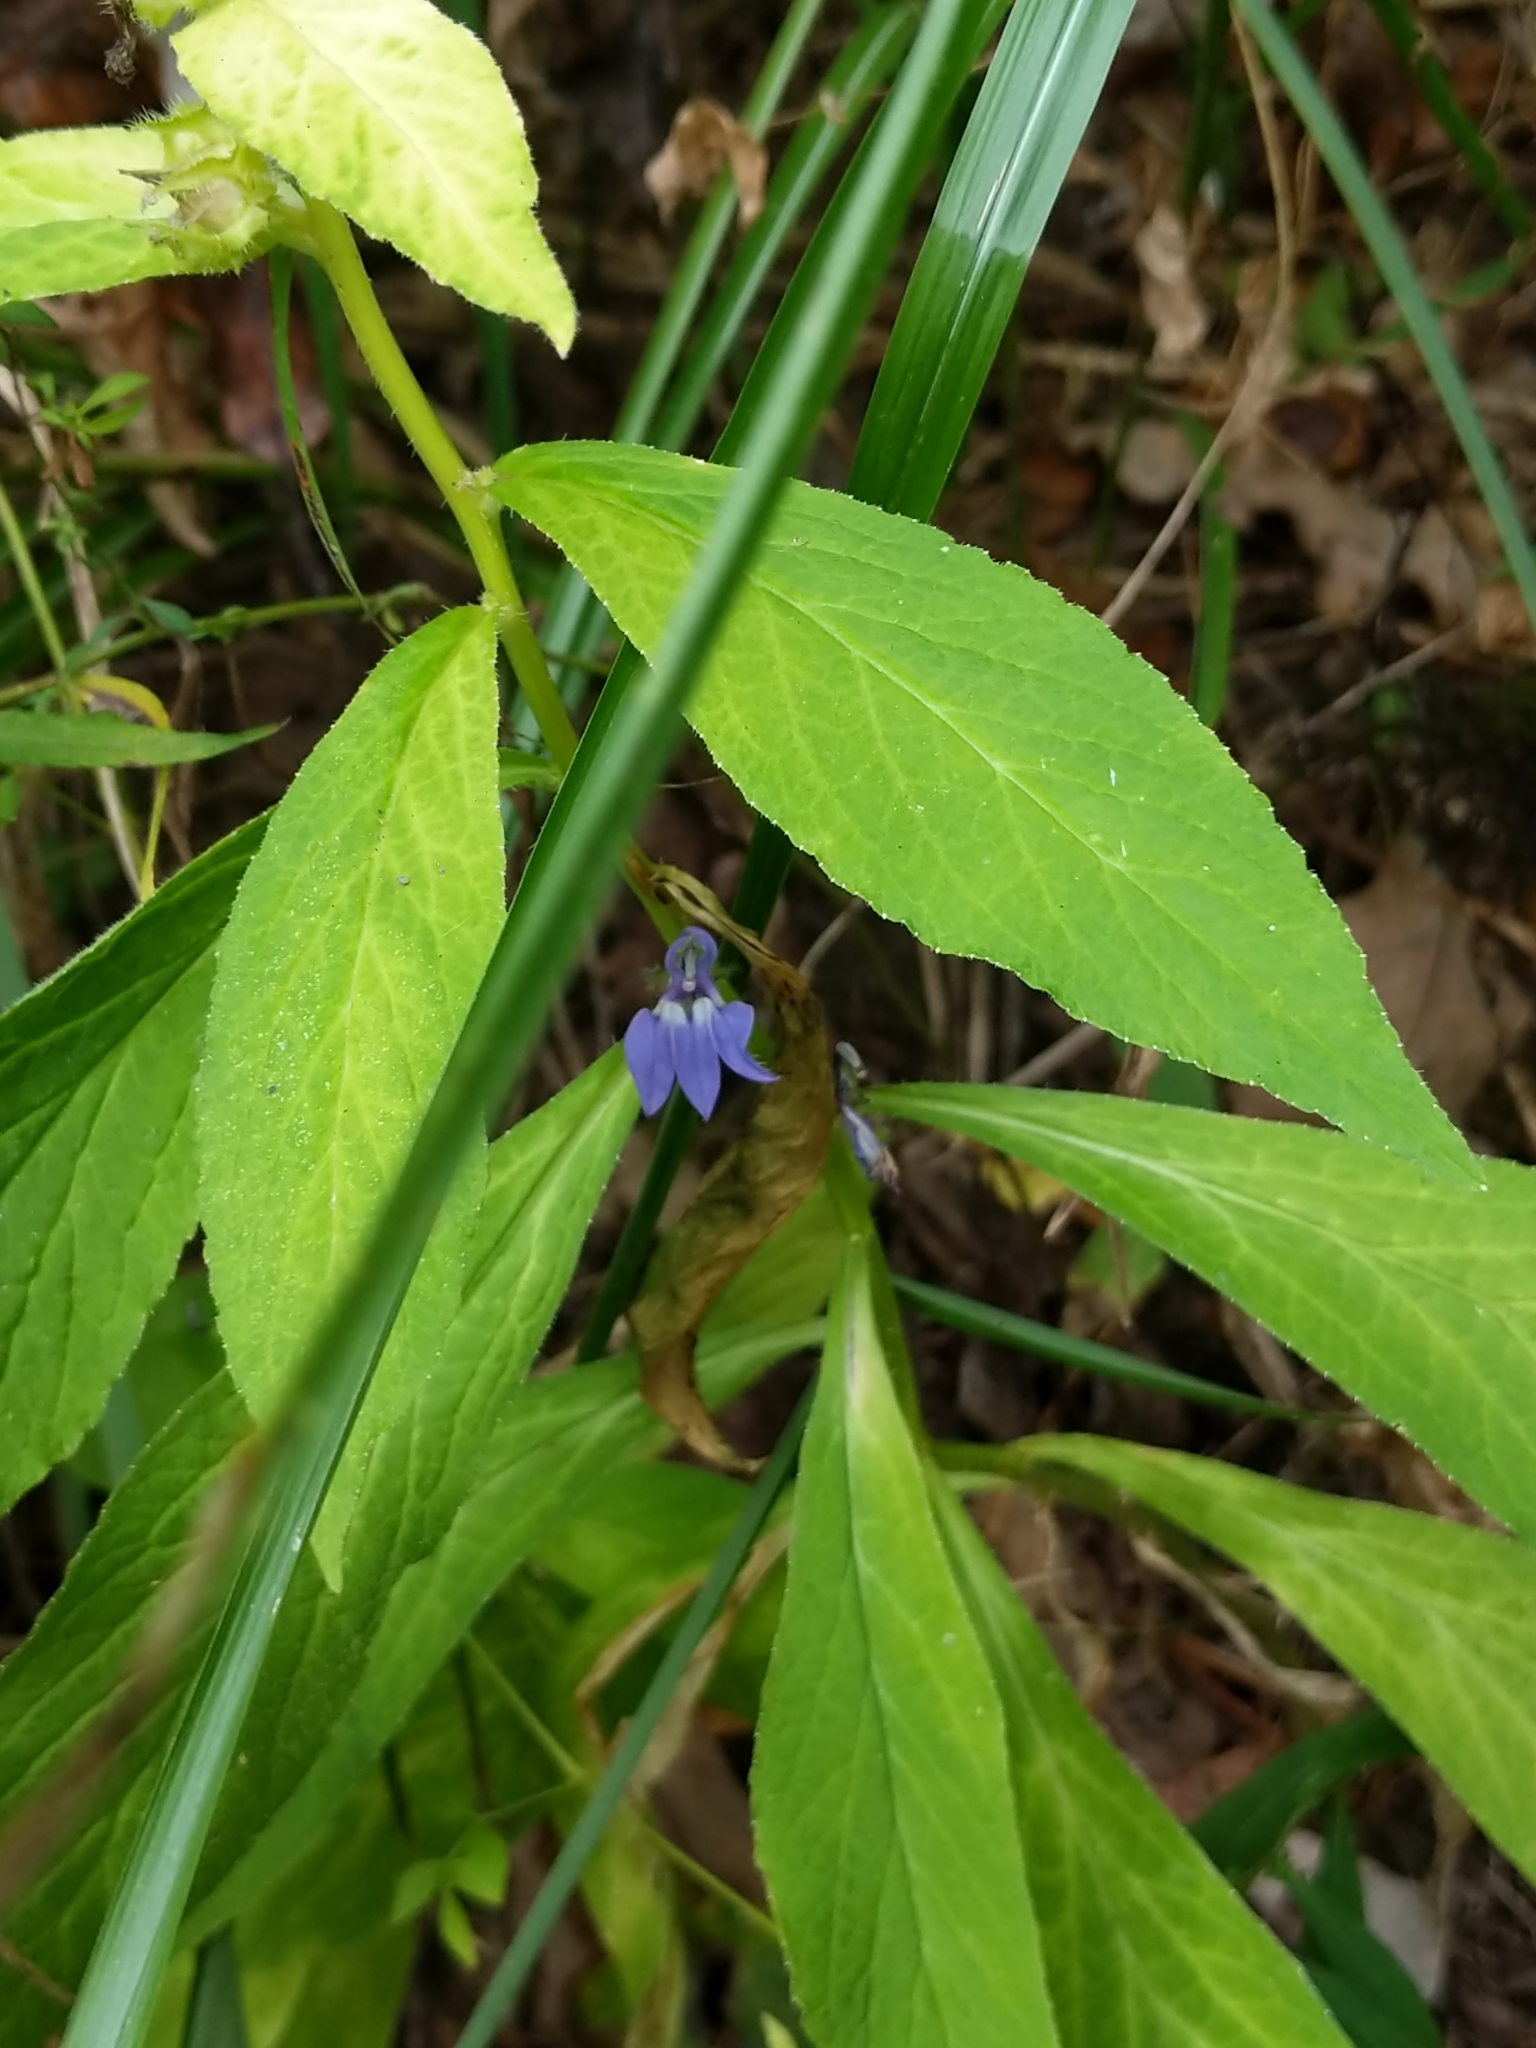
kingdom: Plantae
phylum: Tracheophyta
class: Magnoliopsida
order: Asterales
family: Campanulaceae
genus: Lobelia
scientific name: Lobelia siphilitica
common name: Great lobelia
